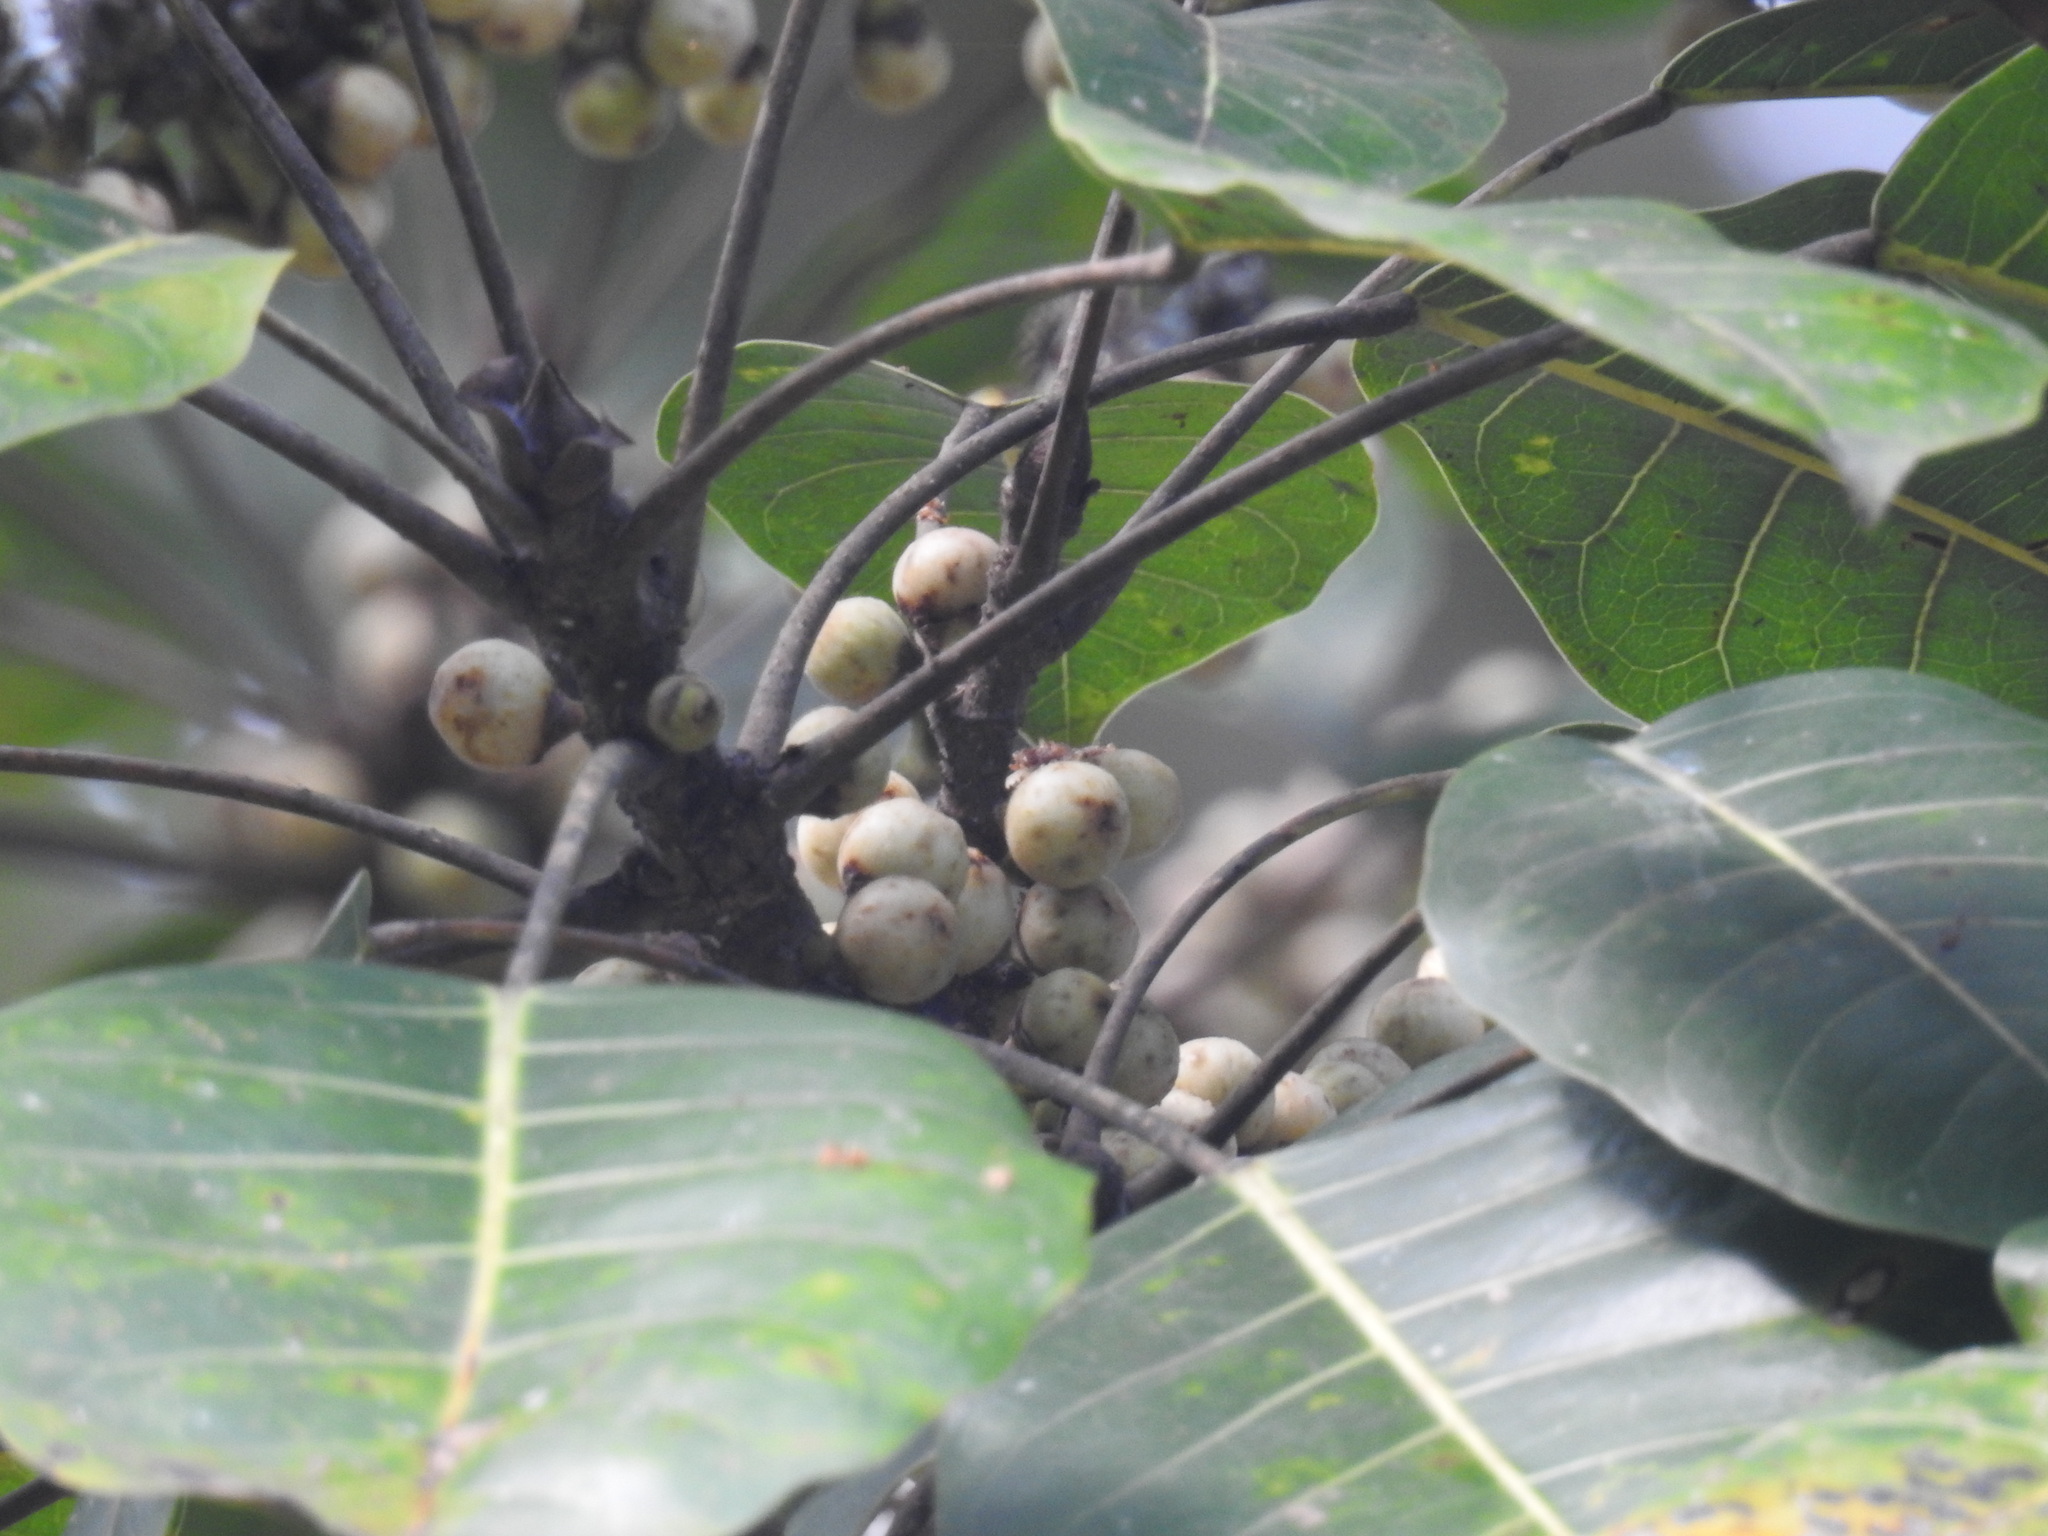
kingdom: Plantae
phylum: Tracheophyta
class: Magnoliopsida
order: Rosales
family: Moraceae
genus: Ficus
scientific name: Ficus superba
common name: Cedar fig
